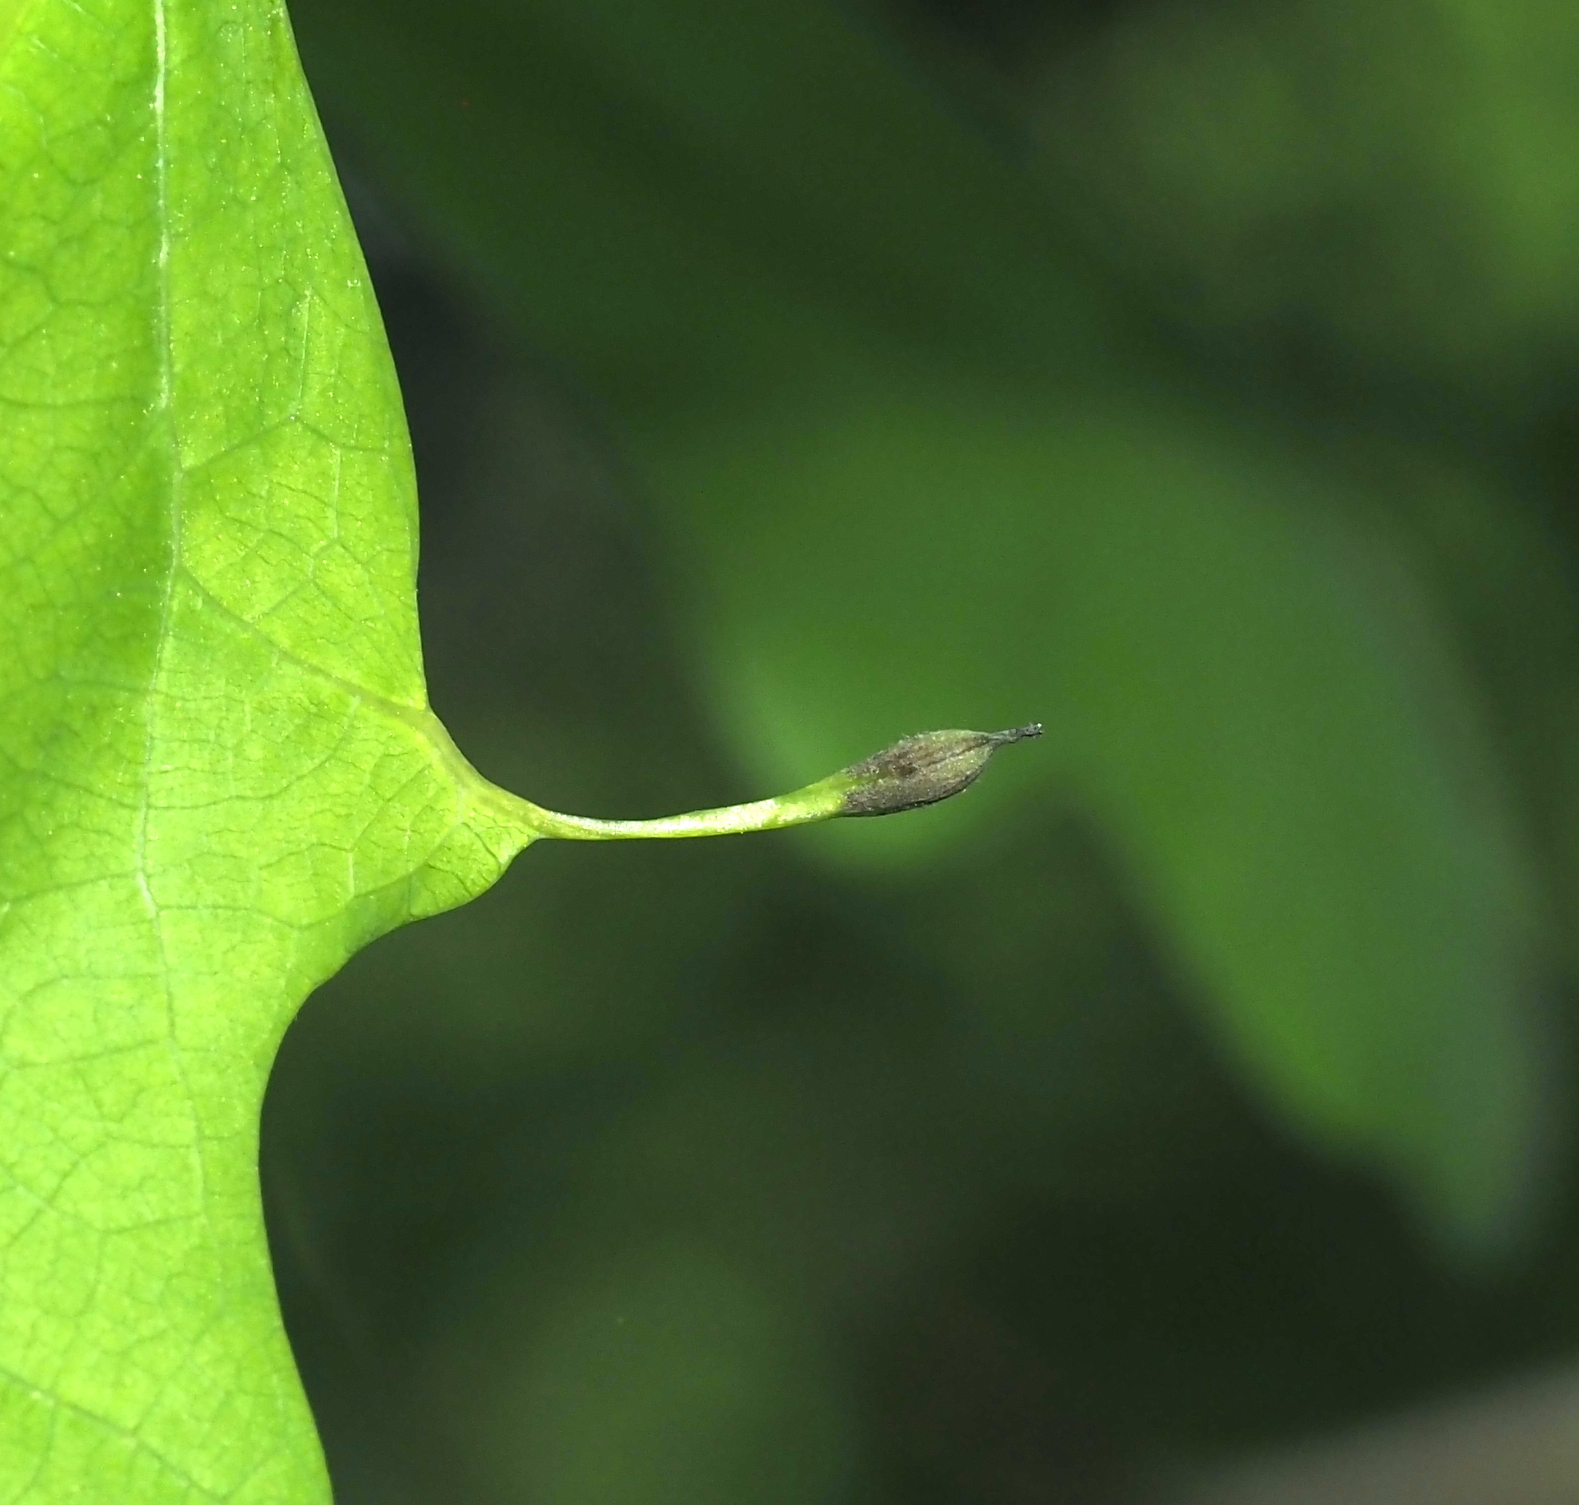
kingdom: Animalia
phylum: Arthropoda
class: Insecta
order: Hymenoptera
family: Cynipidae
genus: Andricus
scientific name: Andricus
